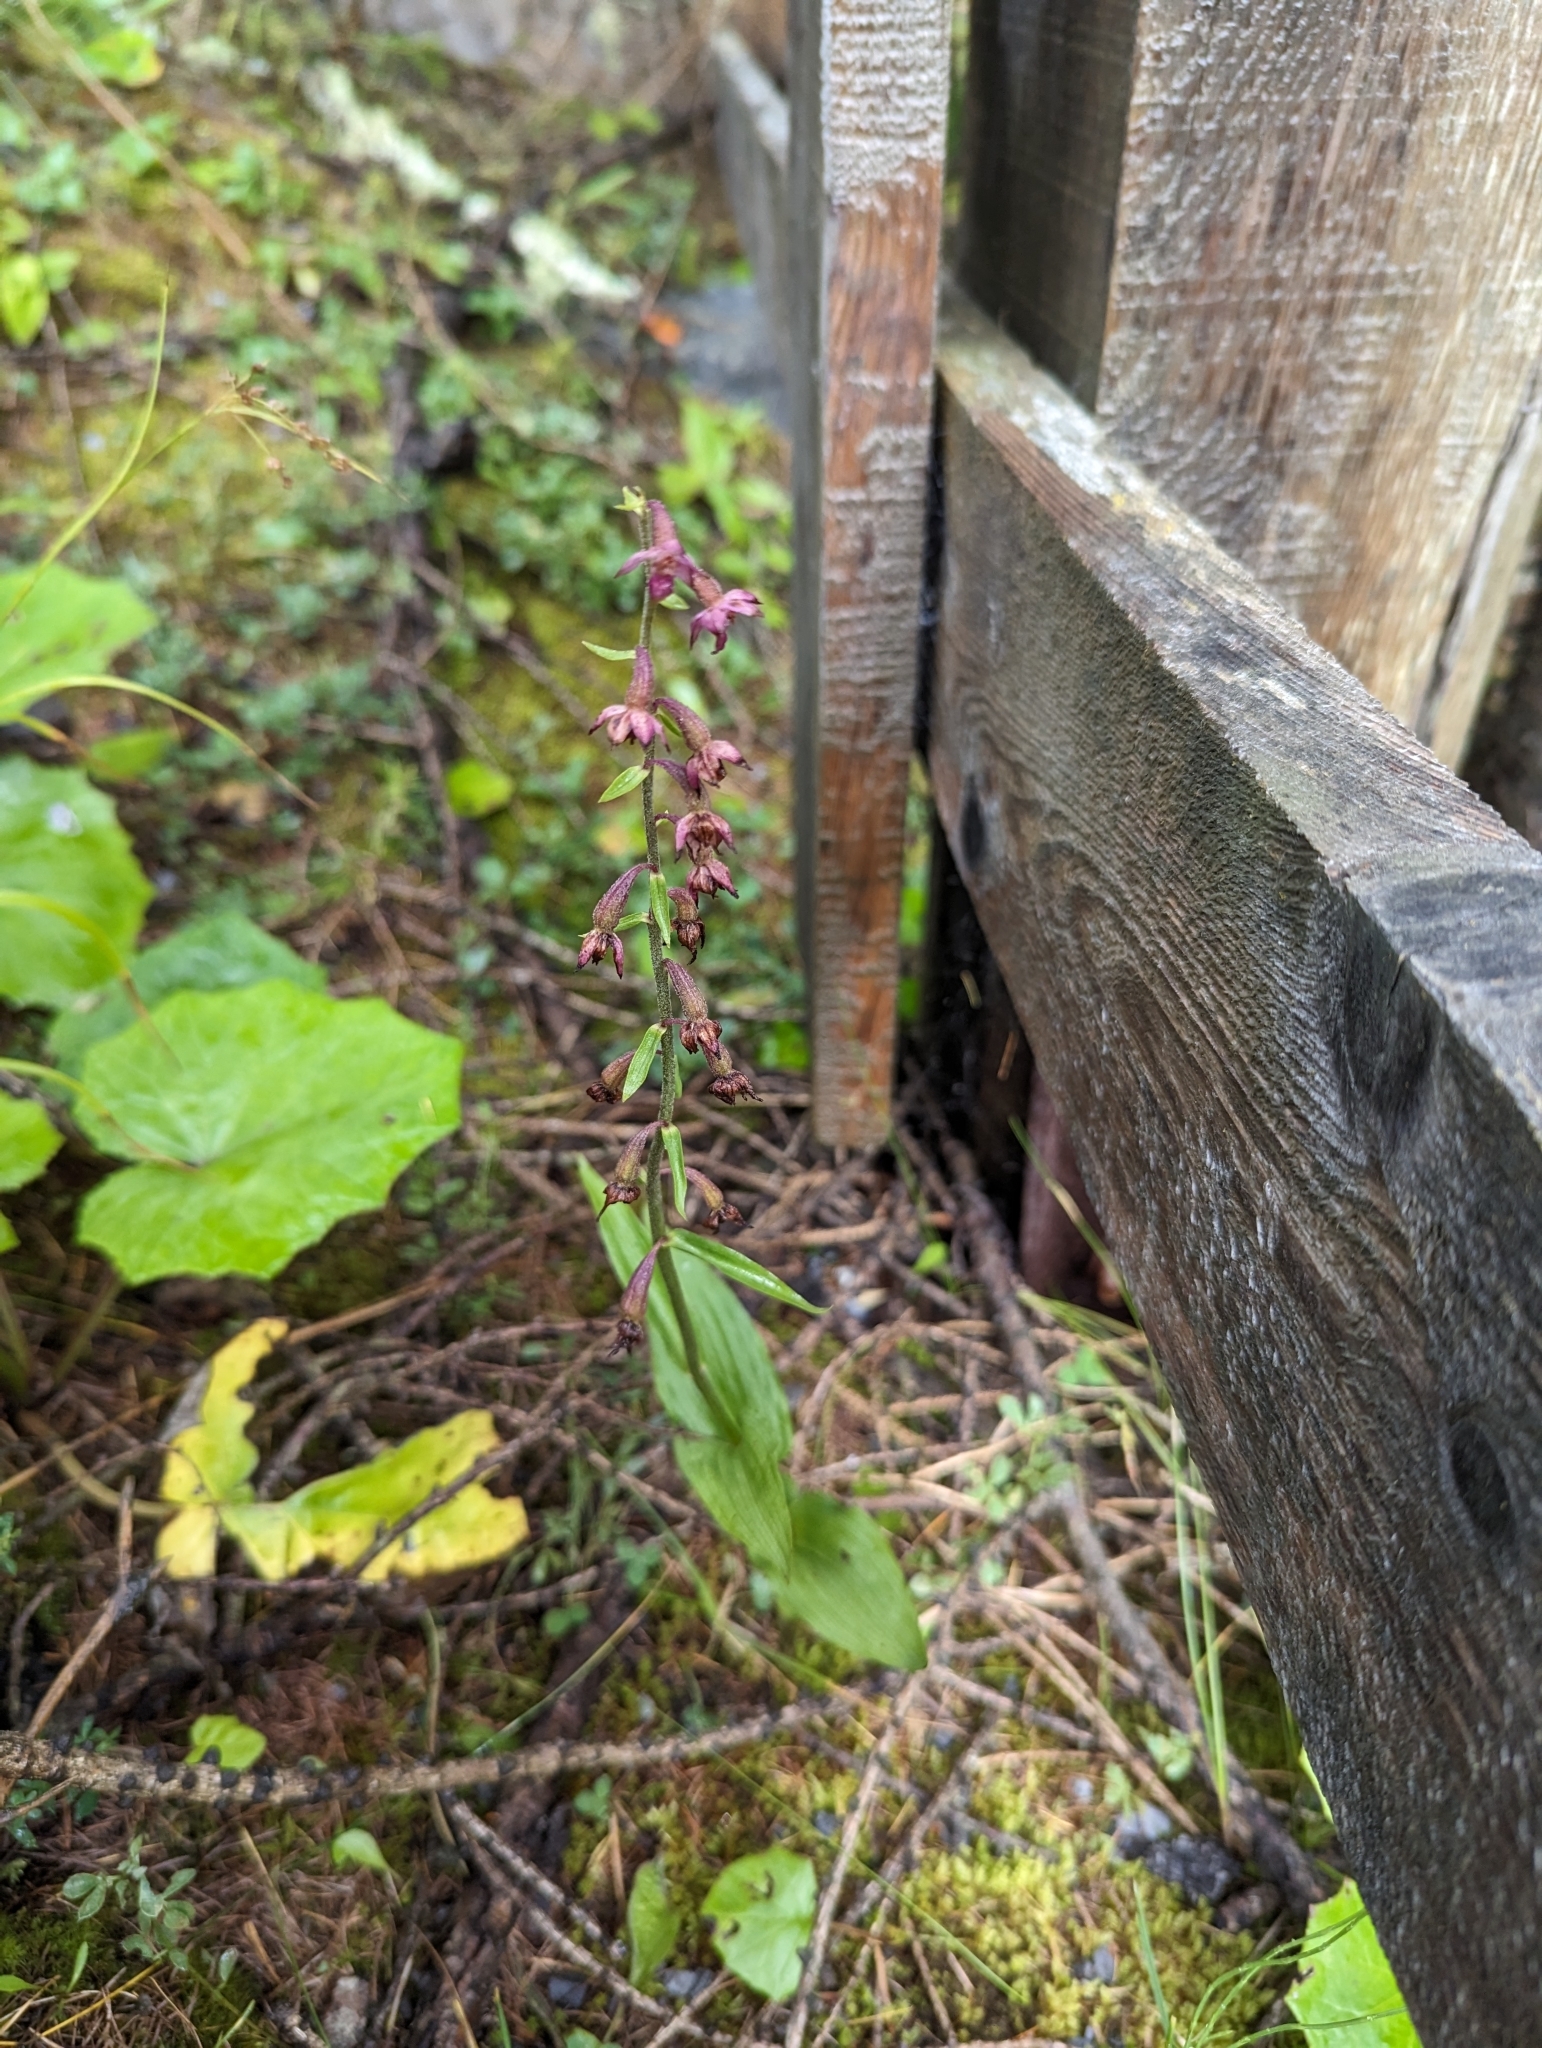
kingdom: Plantae
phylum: Tracheophyta
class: Liliopsida
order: Asparagales
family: Orchidaceae
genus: Epipactis
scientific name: Epipactis atrorubens
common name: Dark-red helleborine
